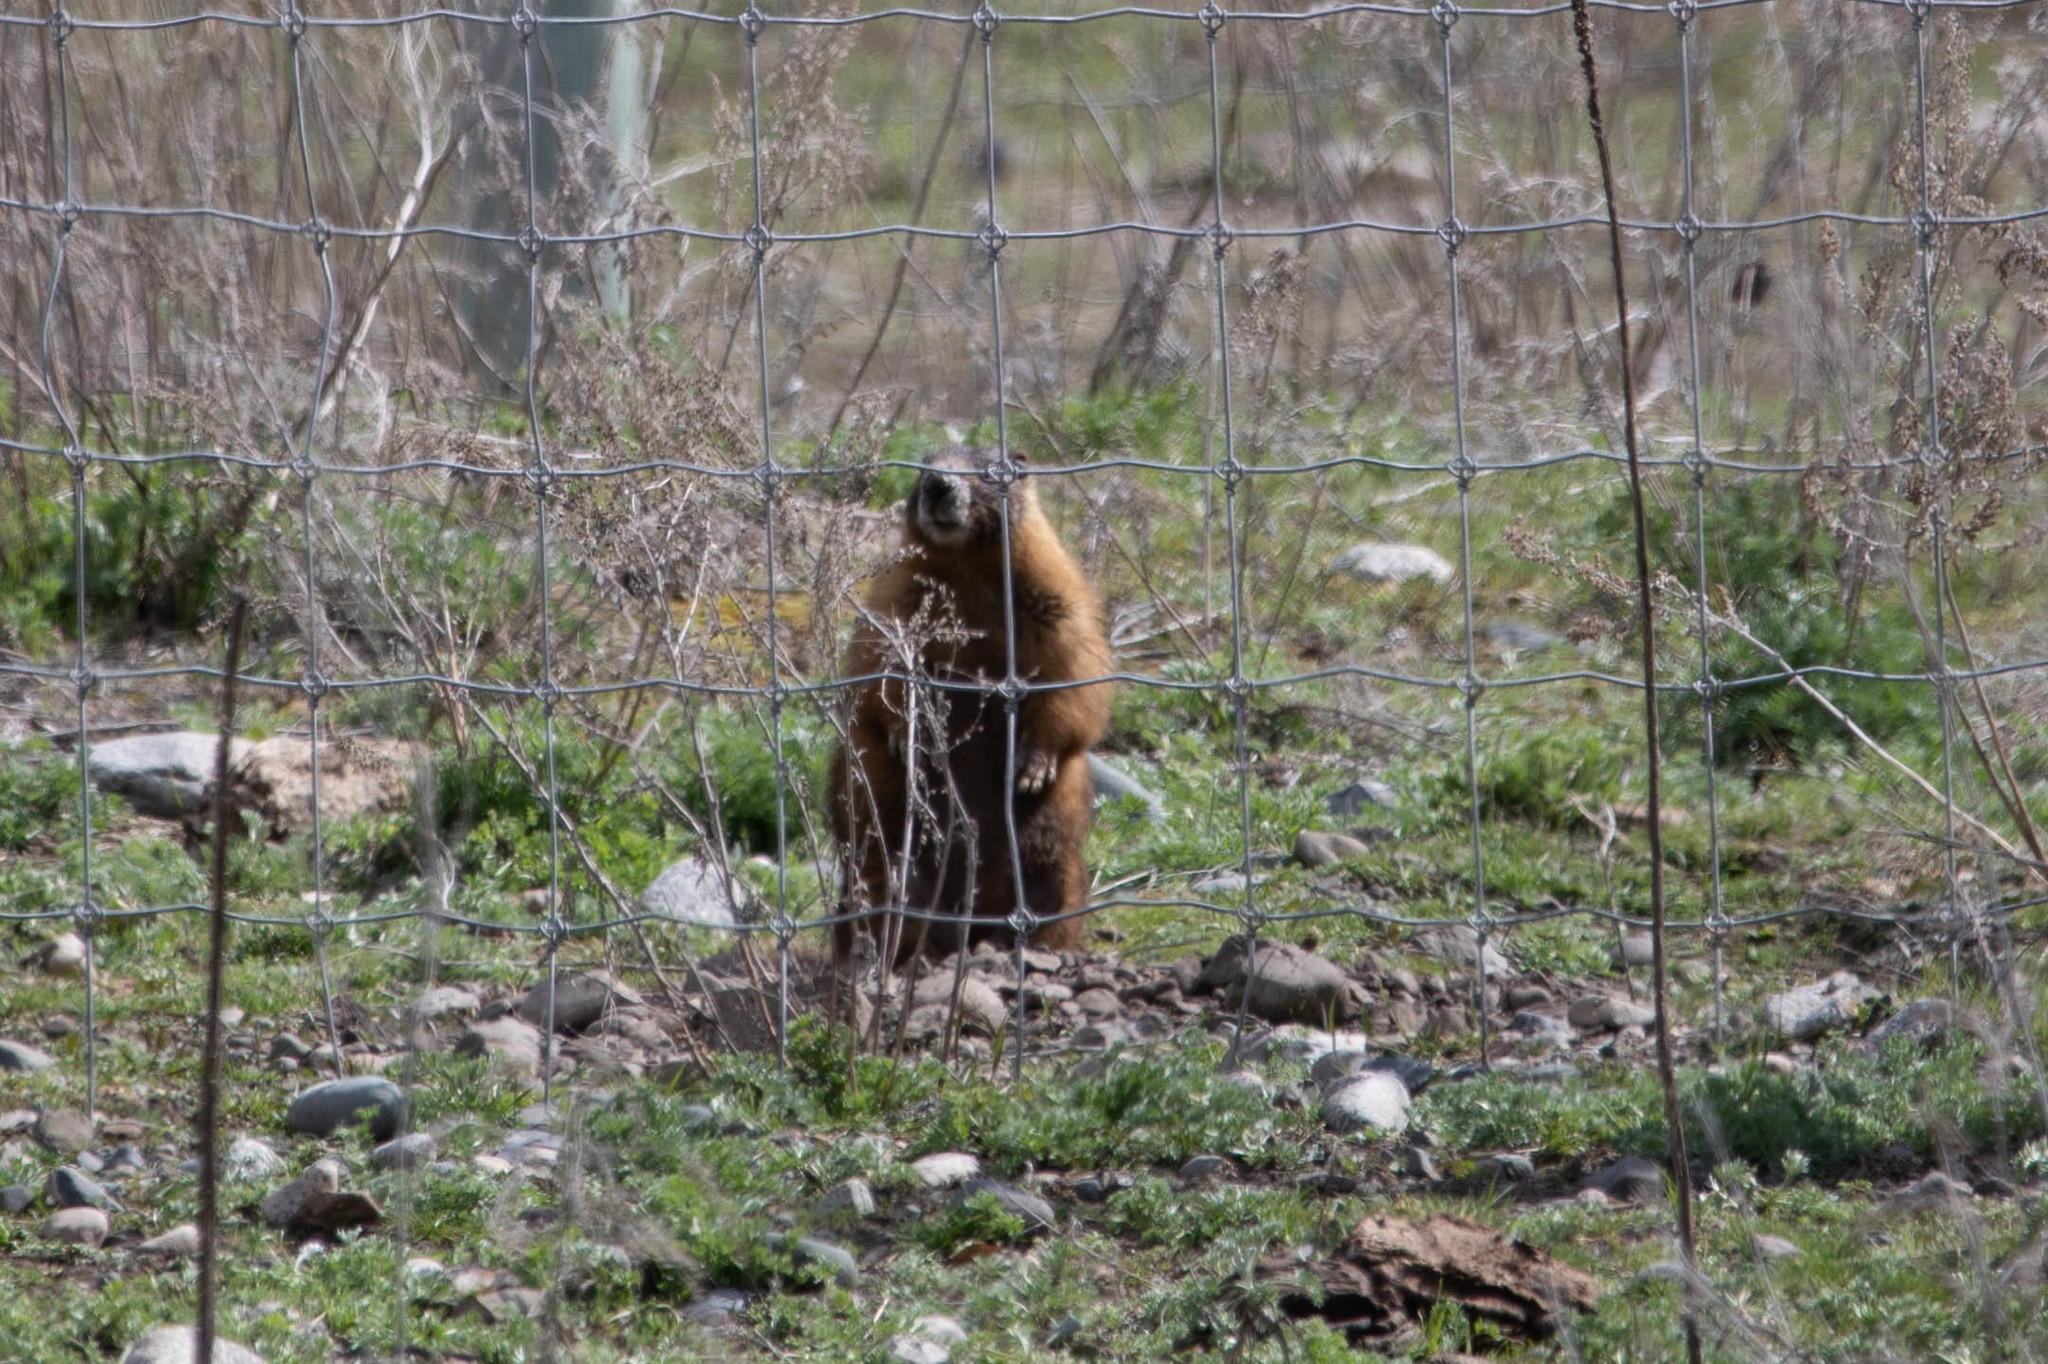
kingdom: Animalia
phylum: Chordata
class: Mammalia
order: Rodentia
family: Sciuridae
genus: Marmota
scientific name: Marmota flaviventris
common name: Yellow-bellied marmot
